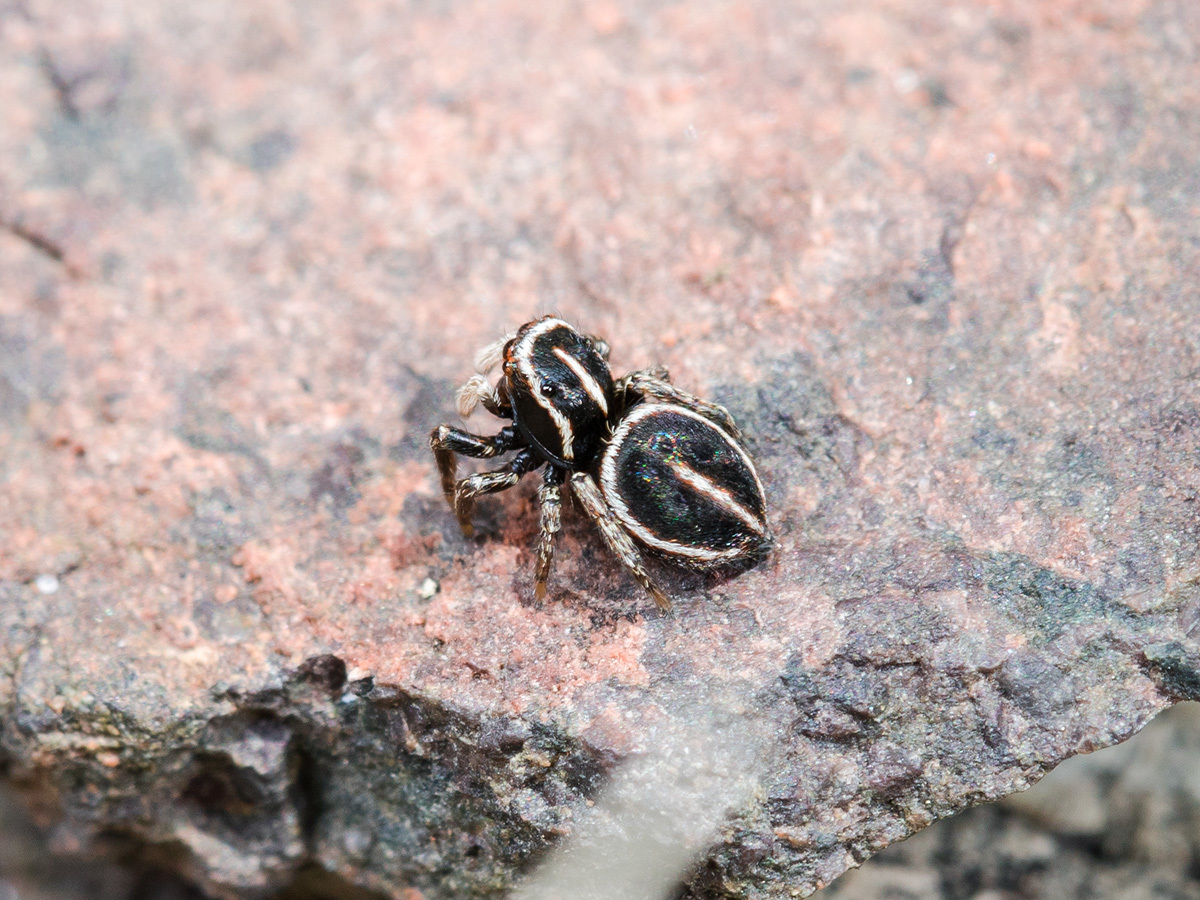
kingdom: Animalia
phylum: Arthropoda
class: Arachnida
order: Araneae
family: Salticidae
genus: Attulus
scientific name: Attulus monstrabilis
